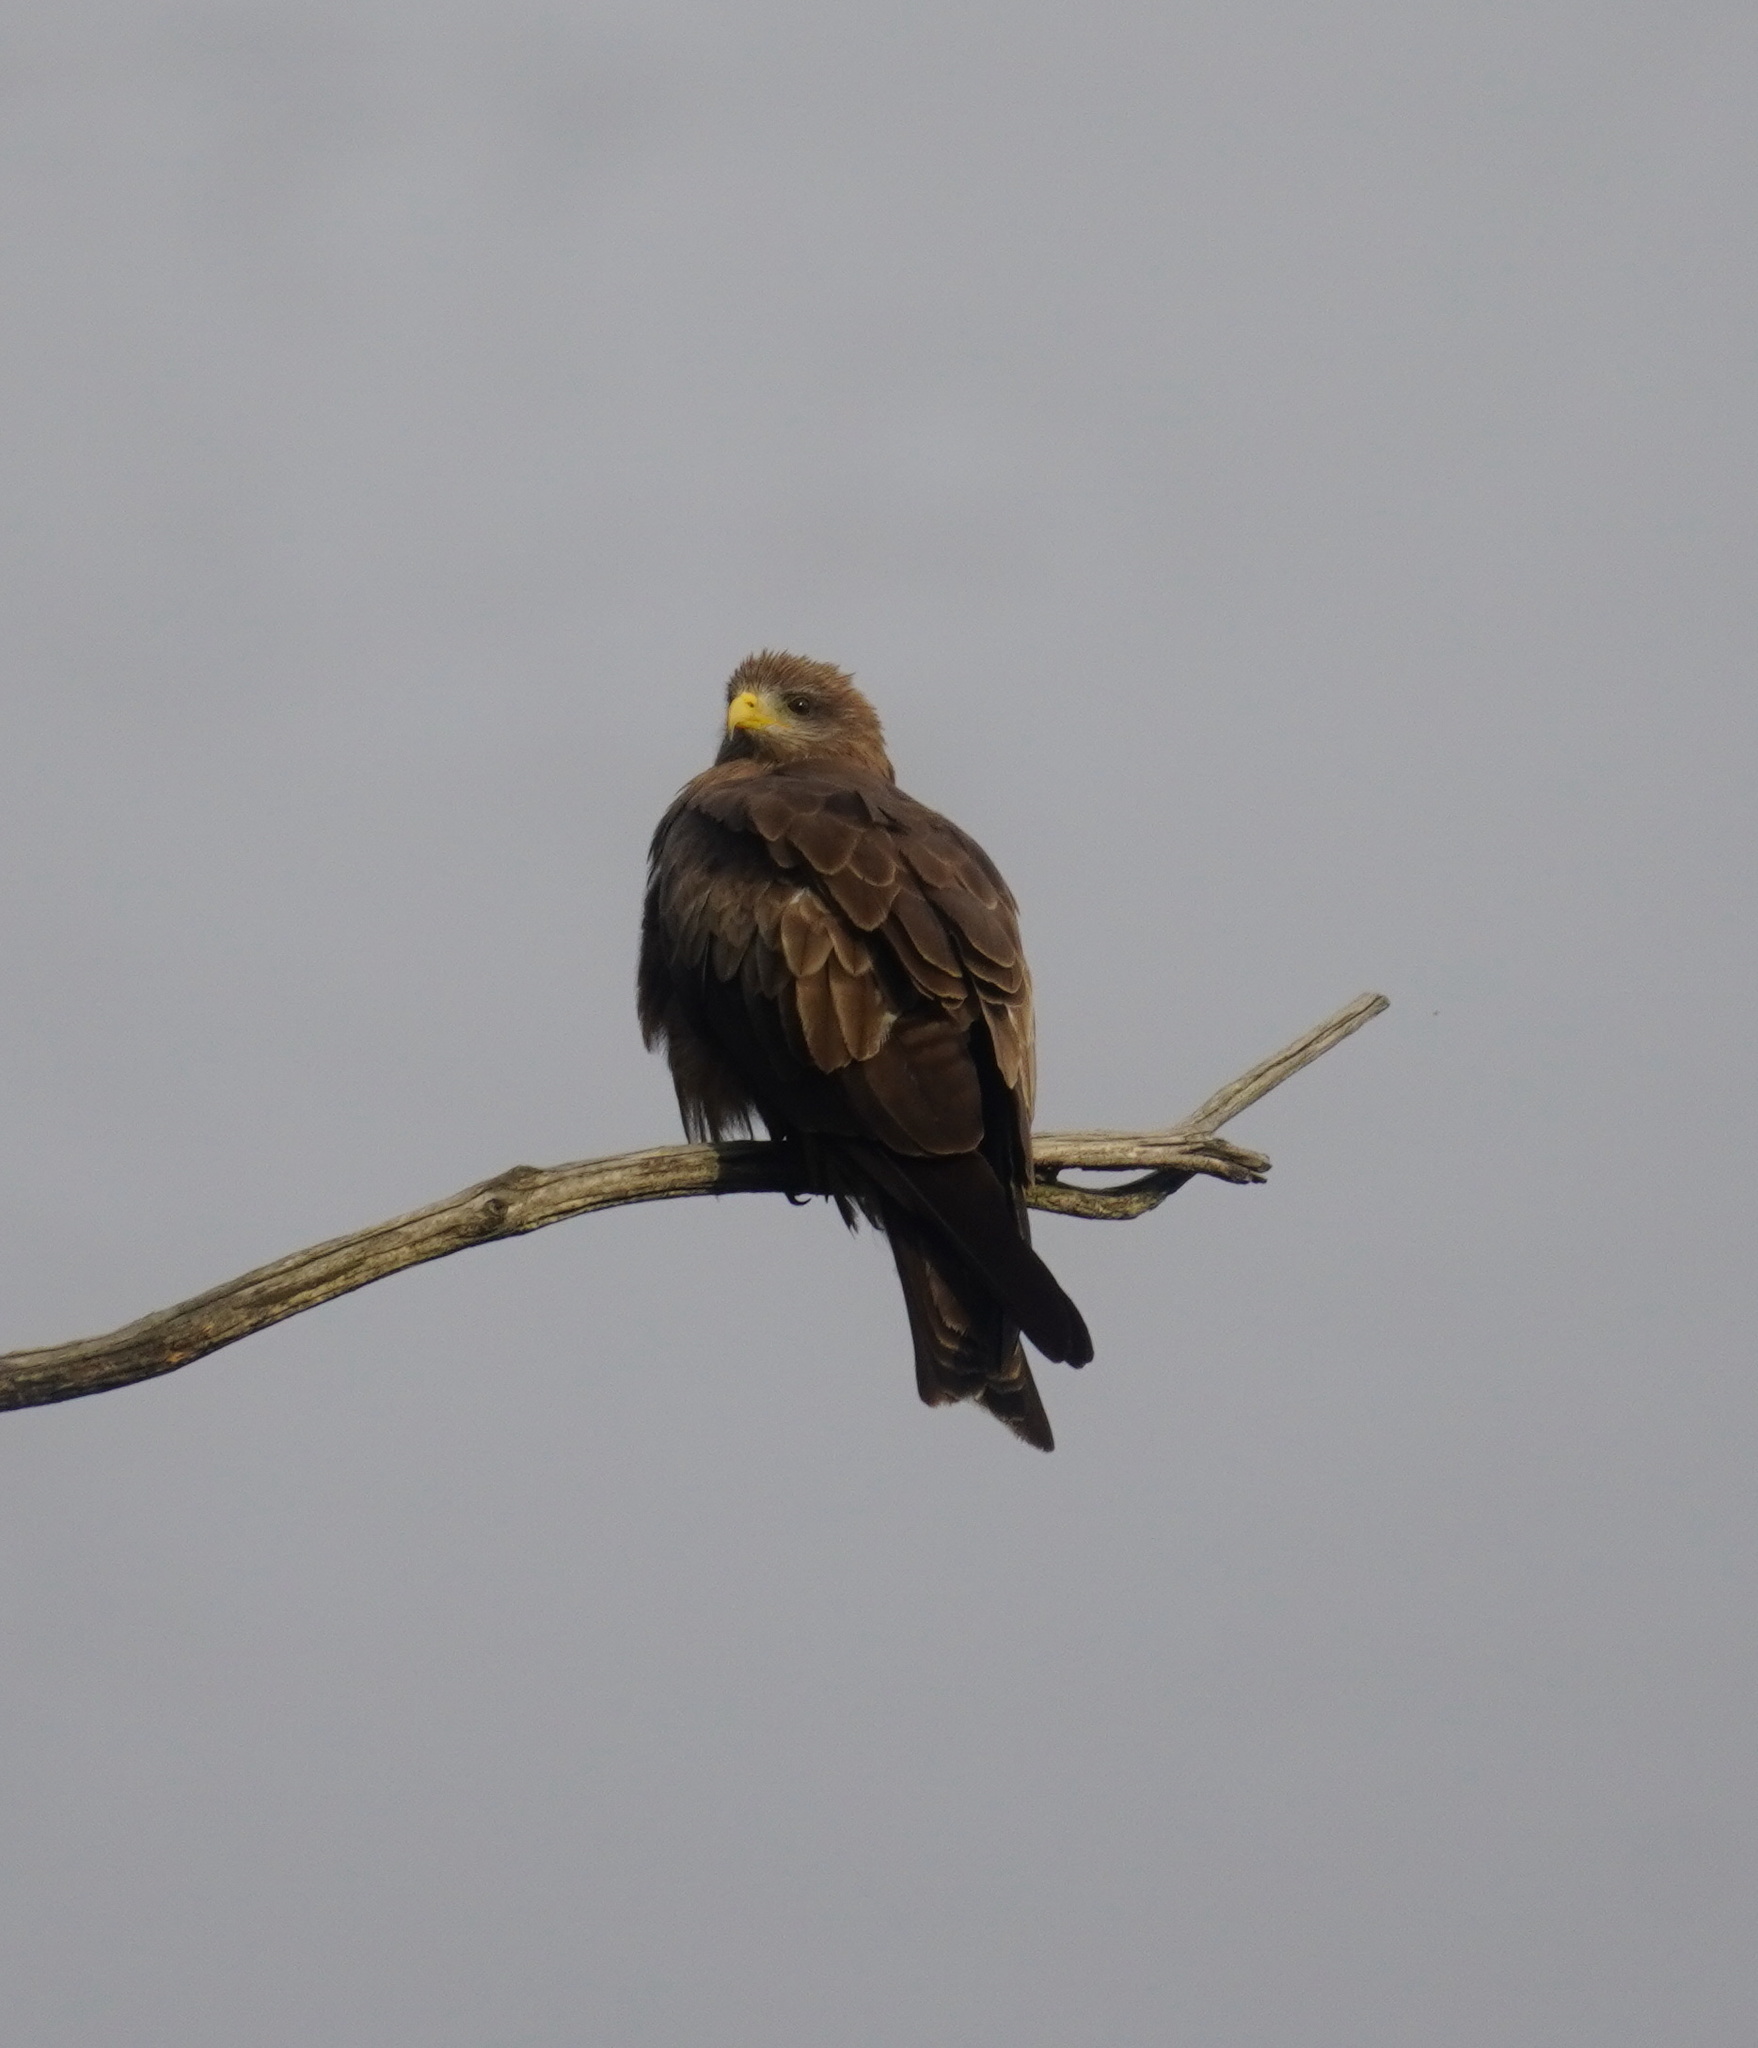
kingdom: Animalia
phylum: Chordata
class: Aves
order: Accipitriformes
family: Accipitridae
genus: Milvus
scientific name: Milvus migrans
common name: Black kite
